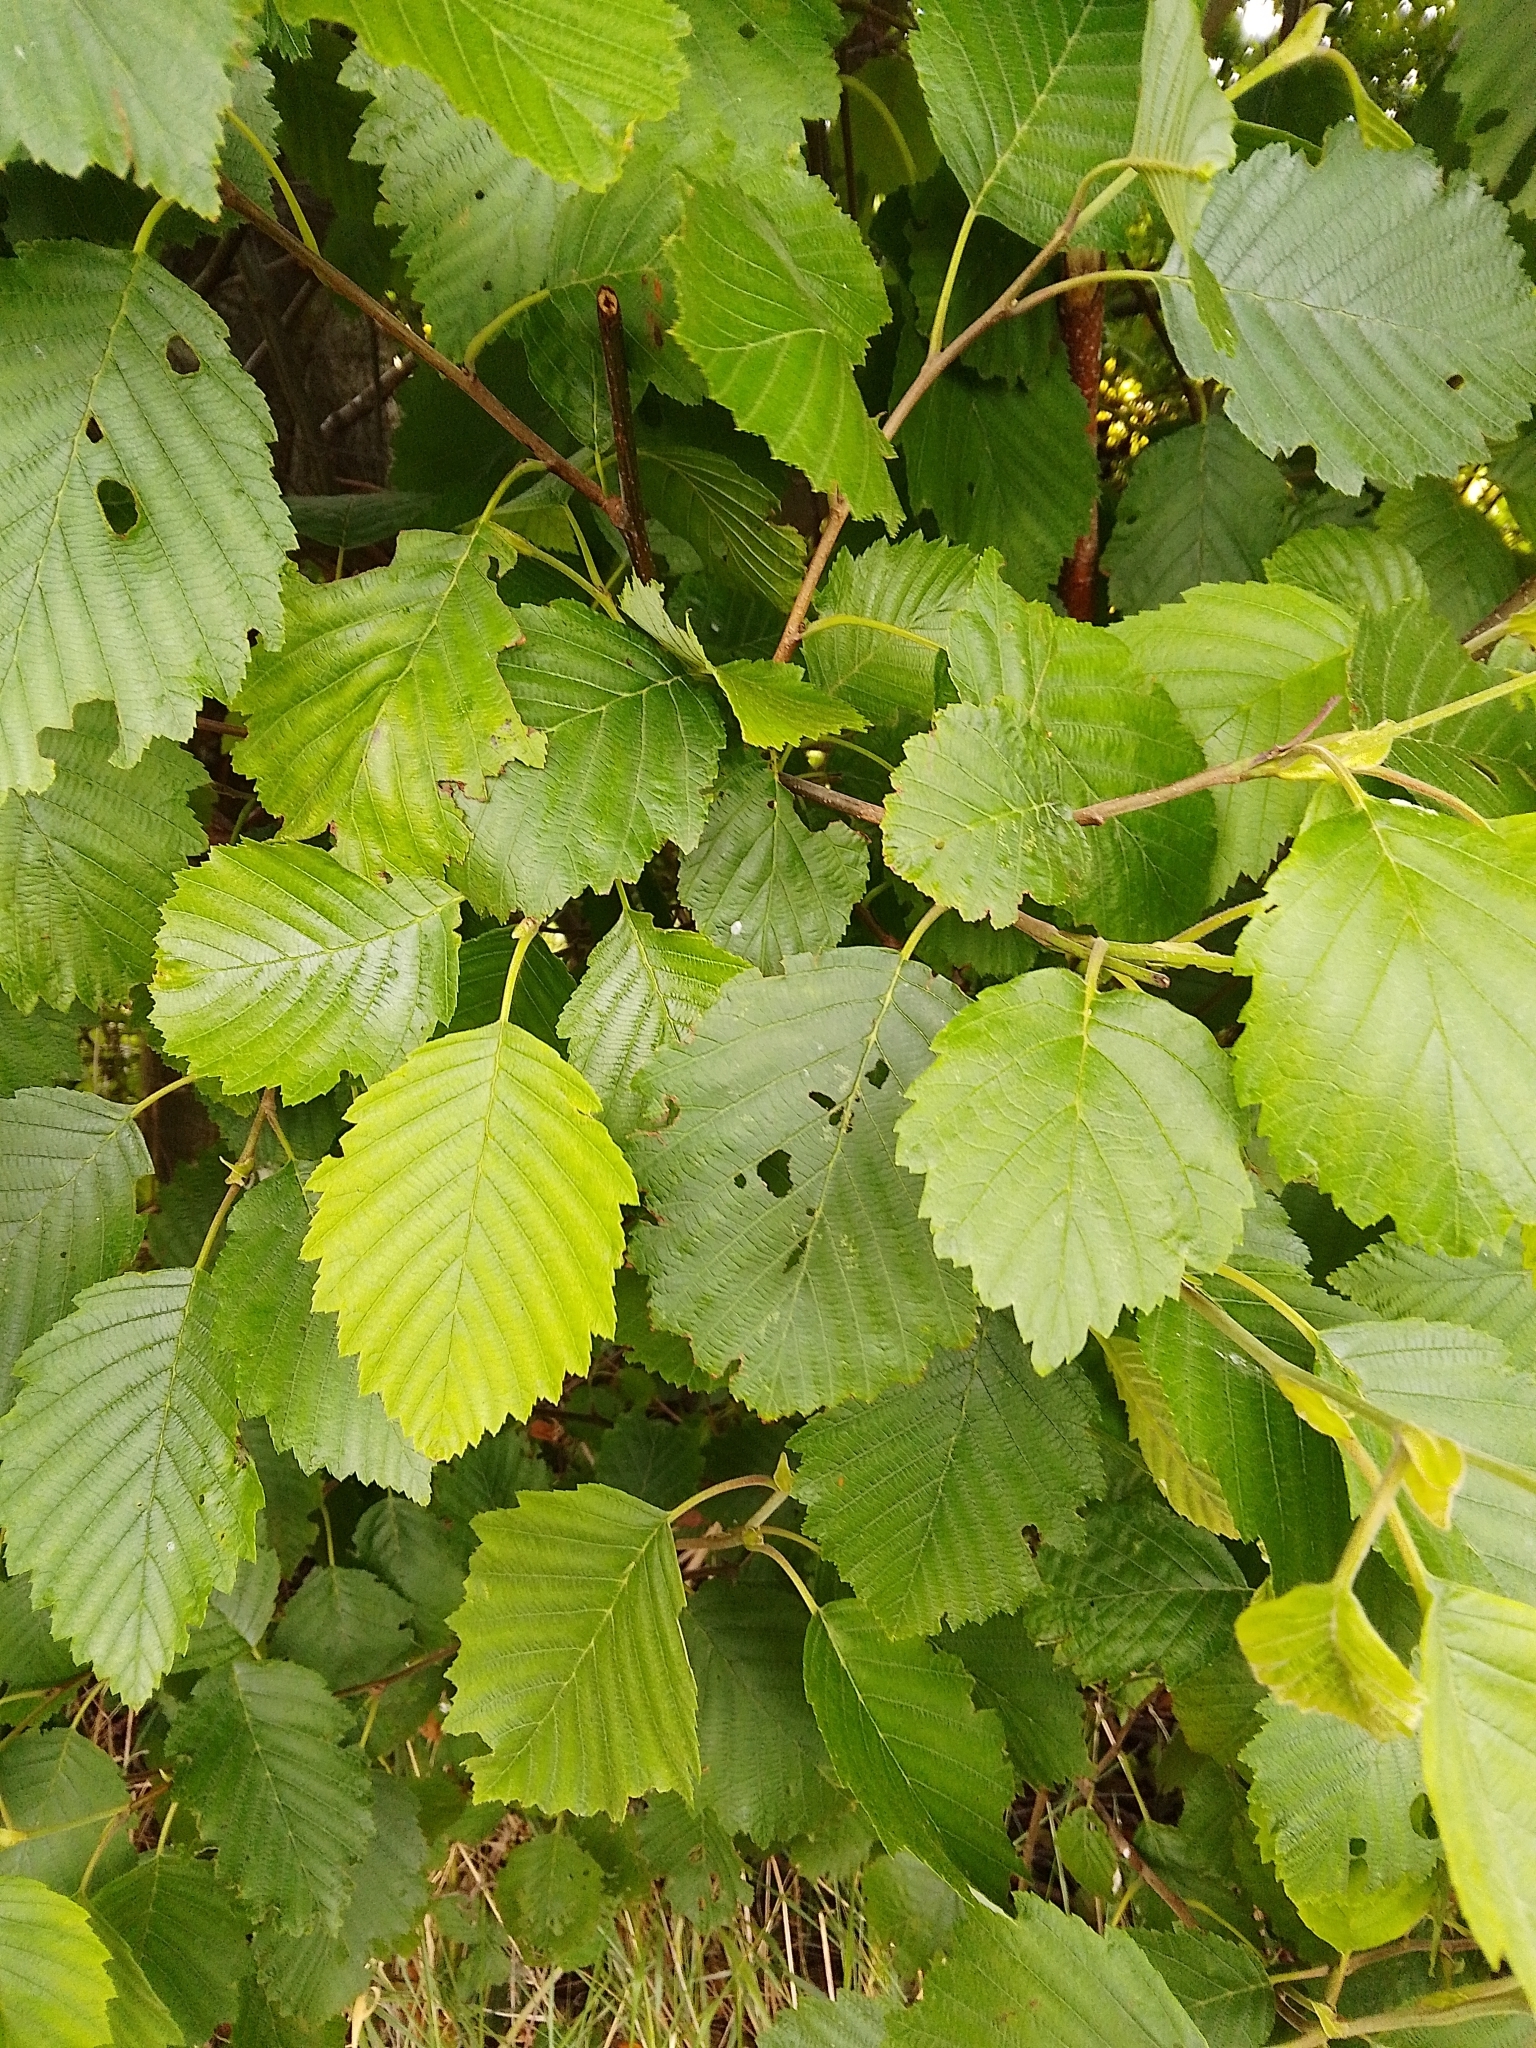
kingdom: Plantae
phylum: Tracheophyta
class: Magnoliopsida
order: Fagales
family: Betulaceae
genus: Alnus
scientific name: Alnus incana
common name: Grey alder
